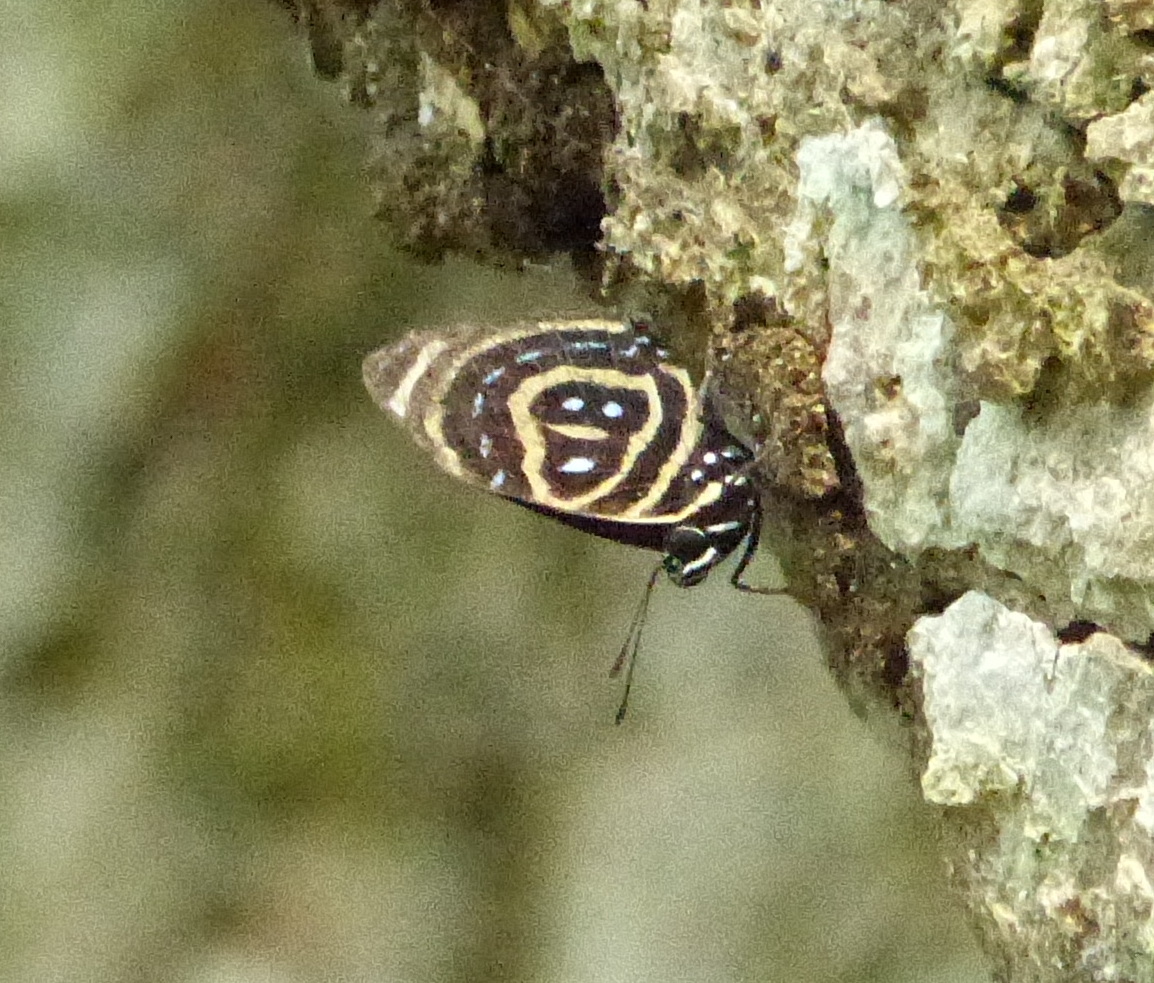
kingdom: Animalia
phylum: Arthropoda
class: Insecta
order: Lepidoptera
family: Nymphalidae
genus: Catagramma
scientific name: Catagramma astarte
